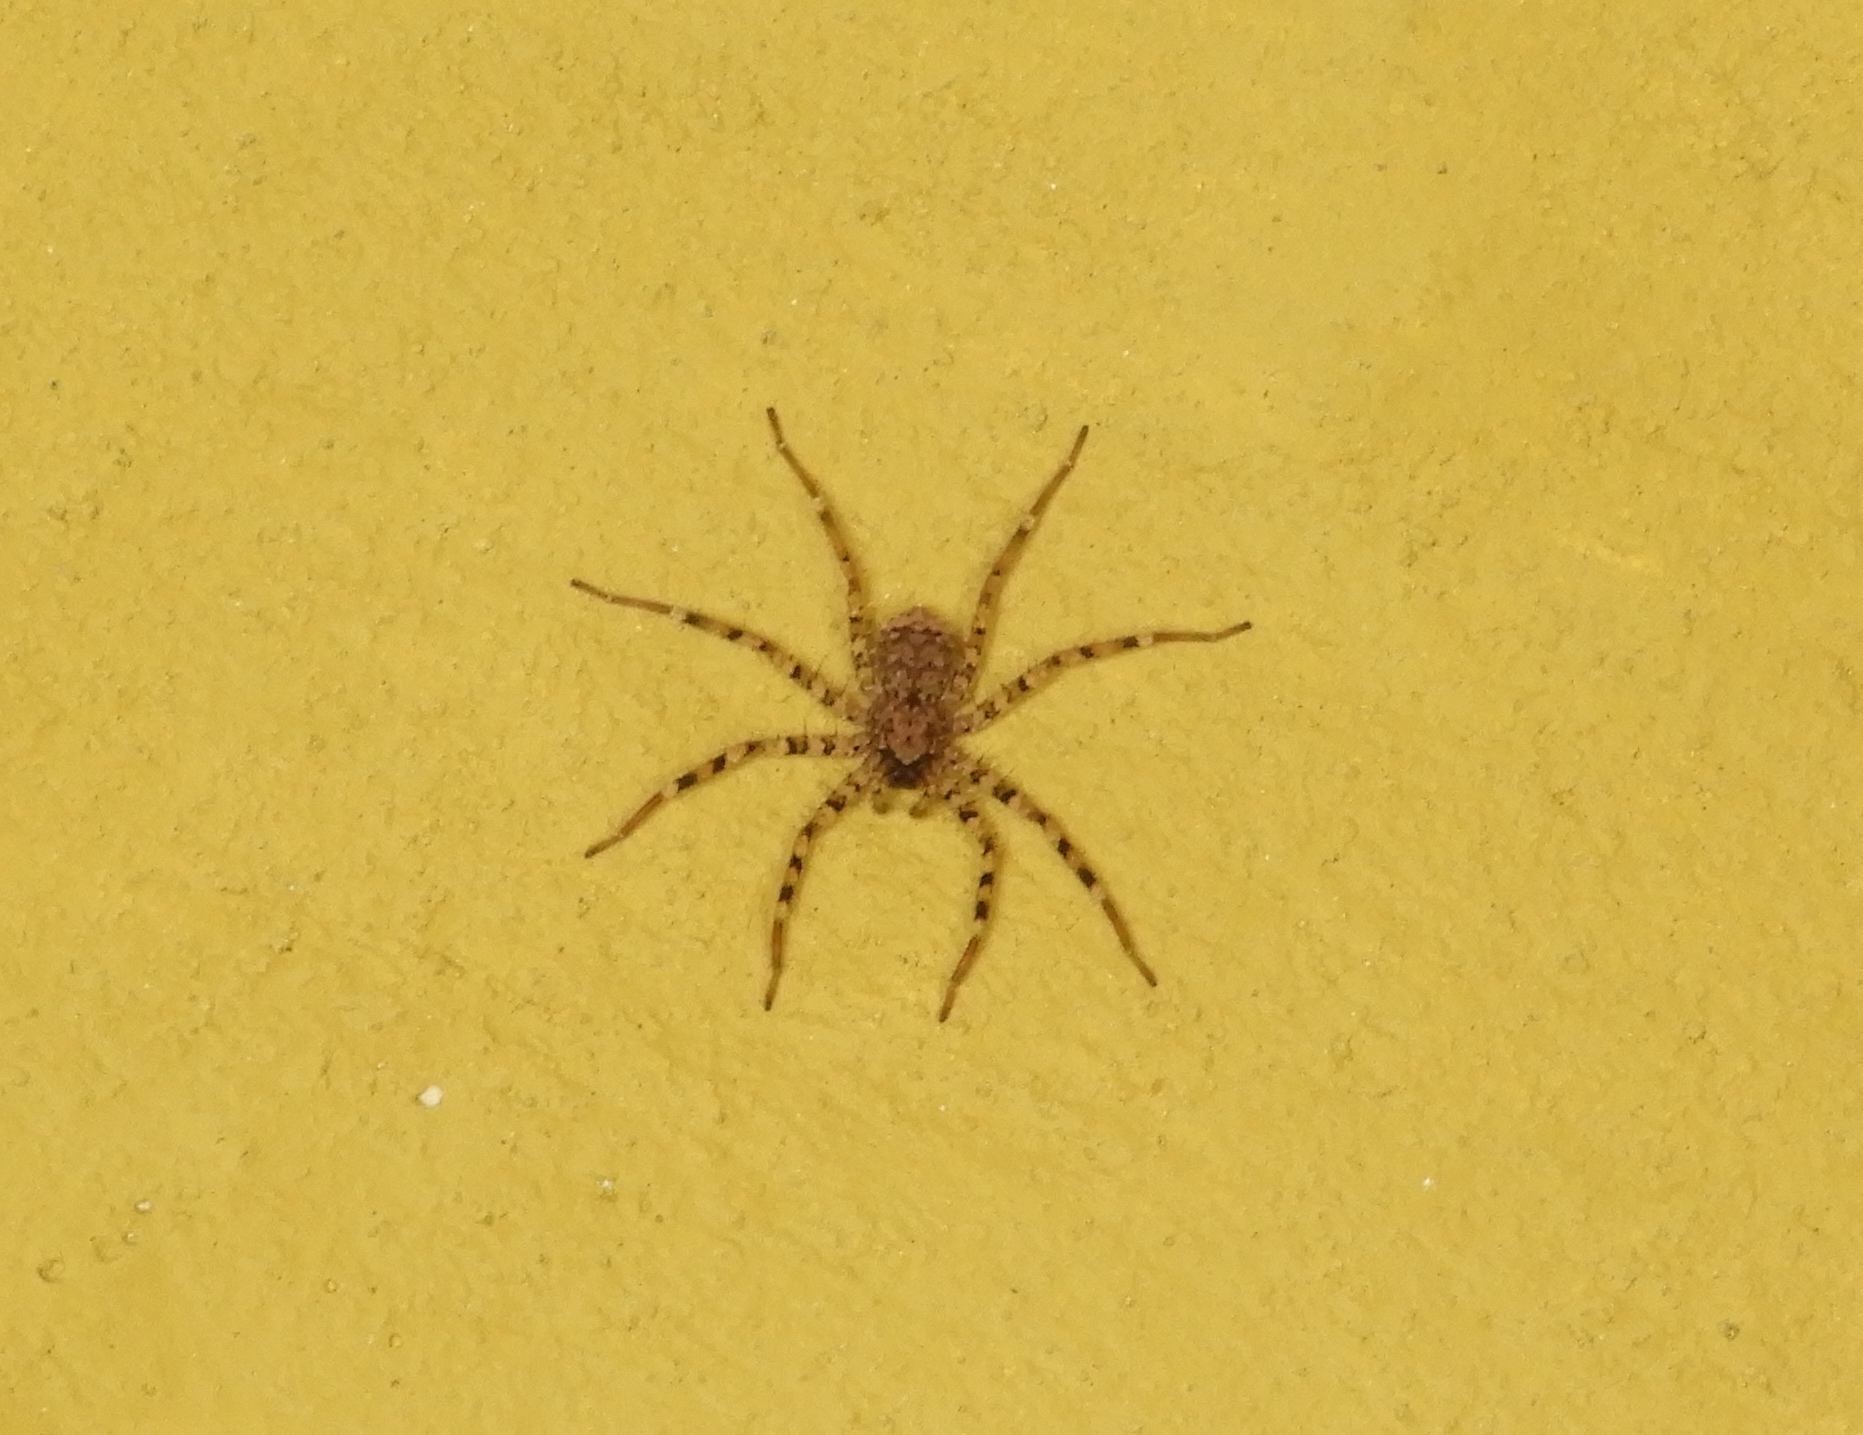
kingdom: Animalia
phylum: Arthropoda
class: Arachnida
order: Araneae
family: Selenopidae
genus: Selenops
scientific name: Selenops
